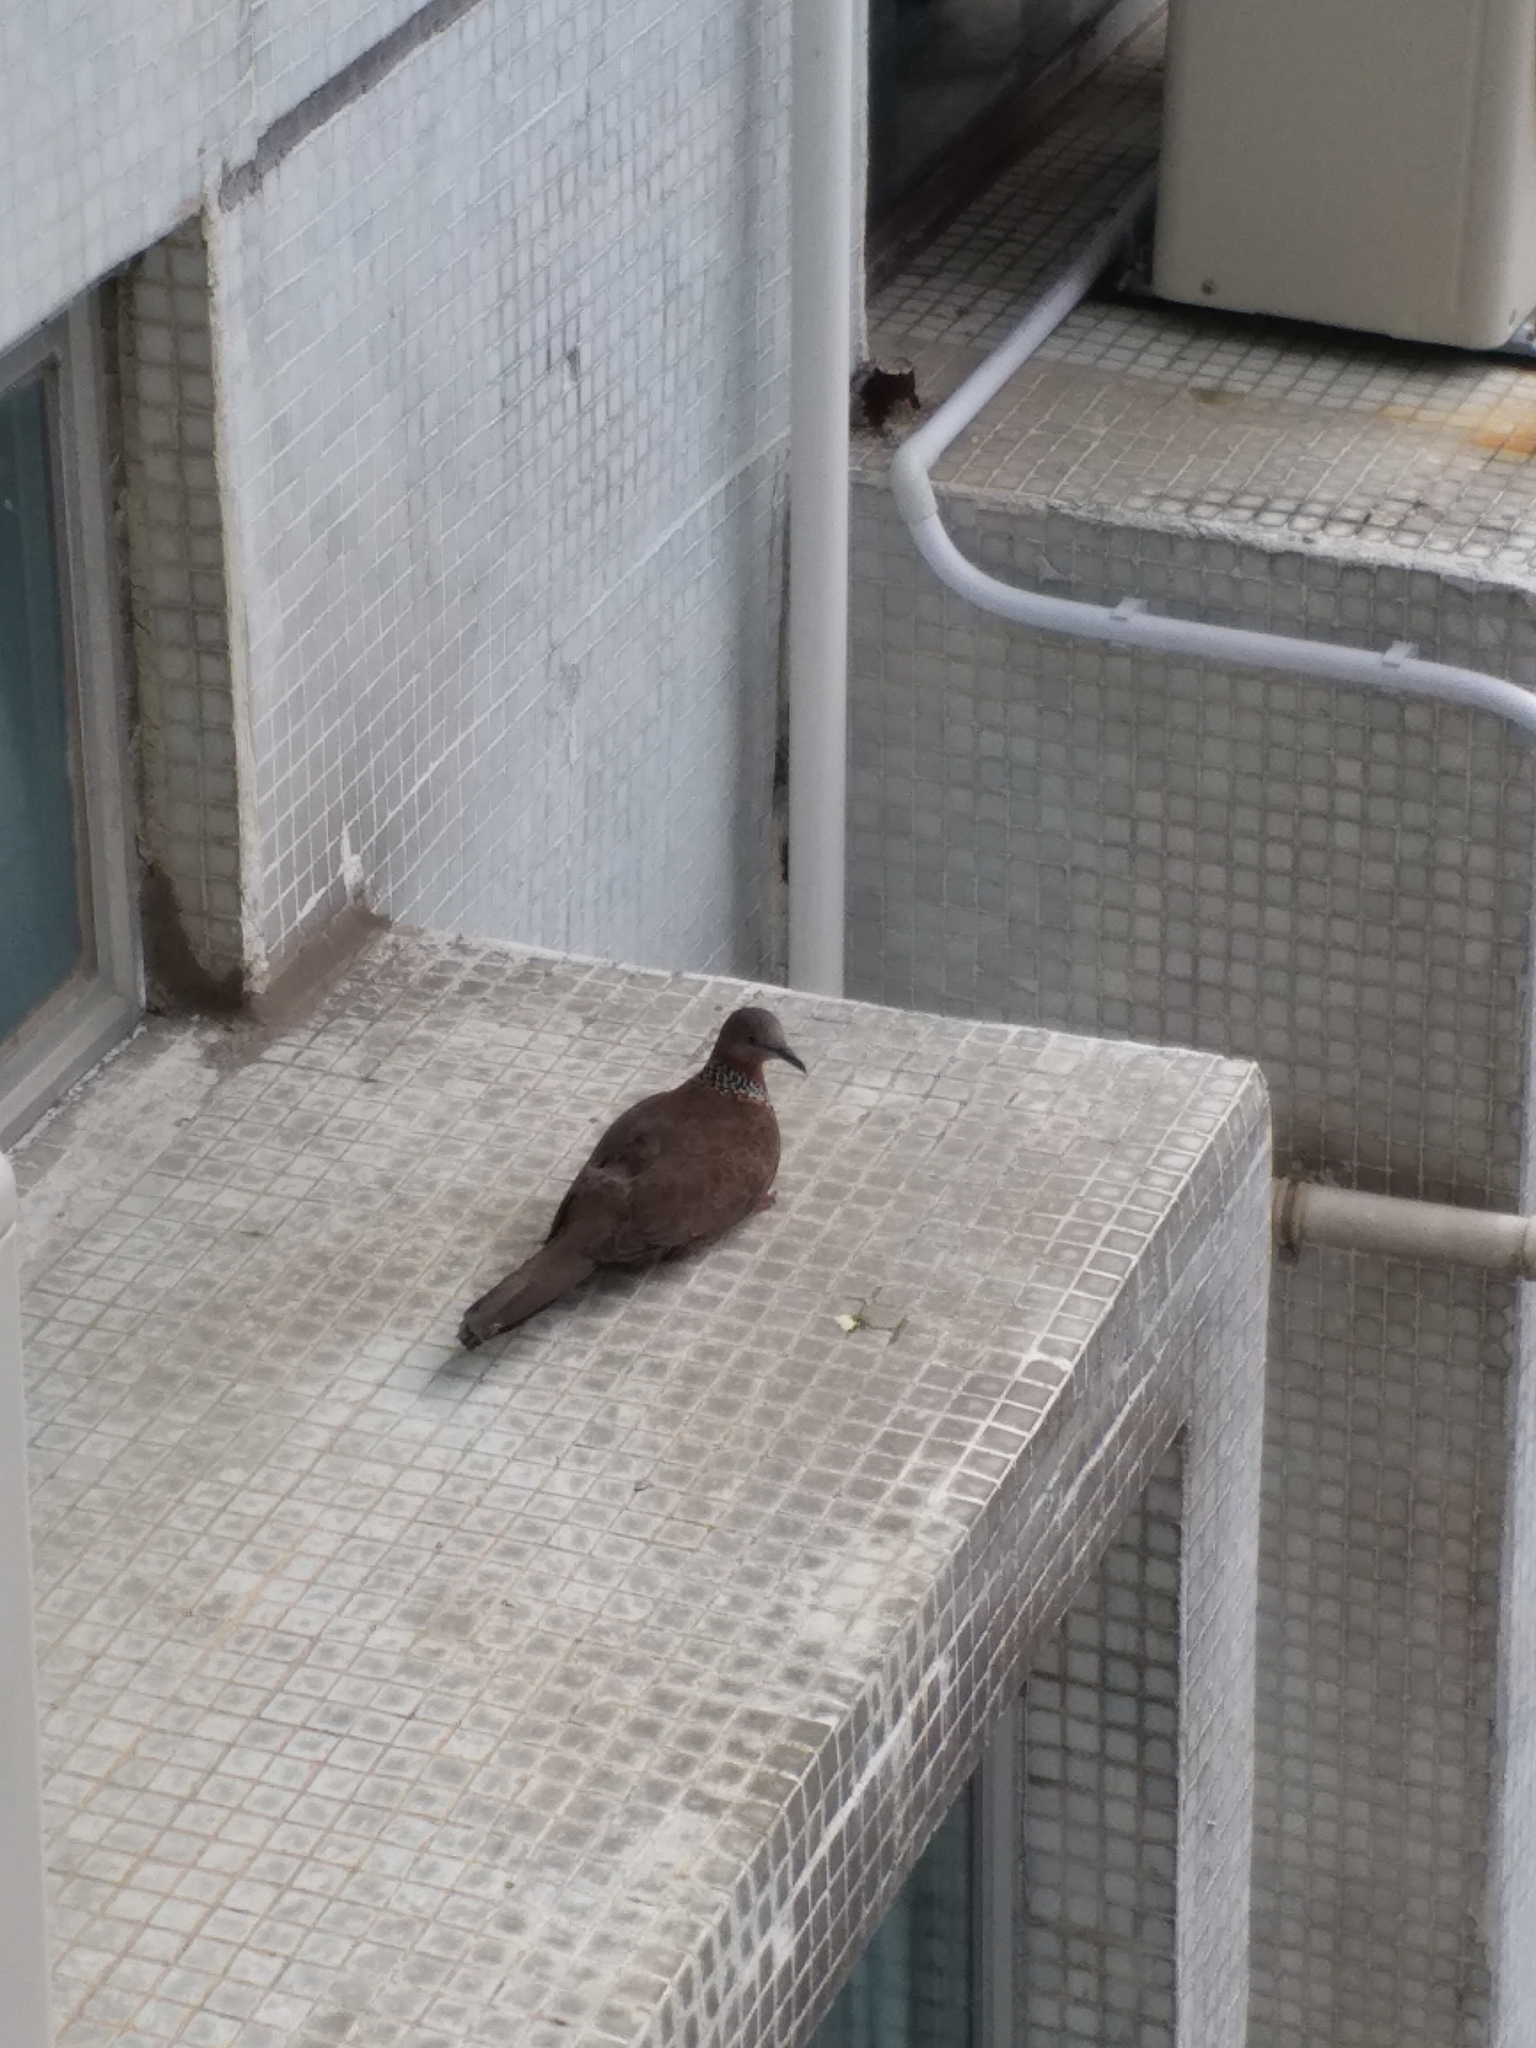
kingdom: Animalia
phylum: Chordata
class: Aves
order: Columbiformes
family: Columbidae
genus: Spilopelia
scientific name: Spilopelia chinensis
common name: Spotted dove
